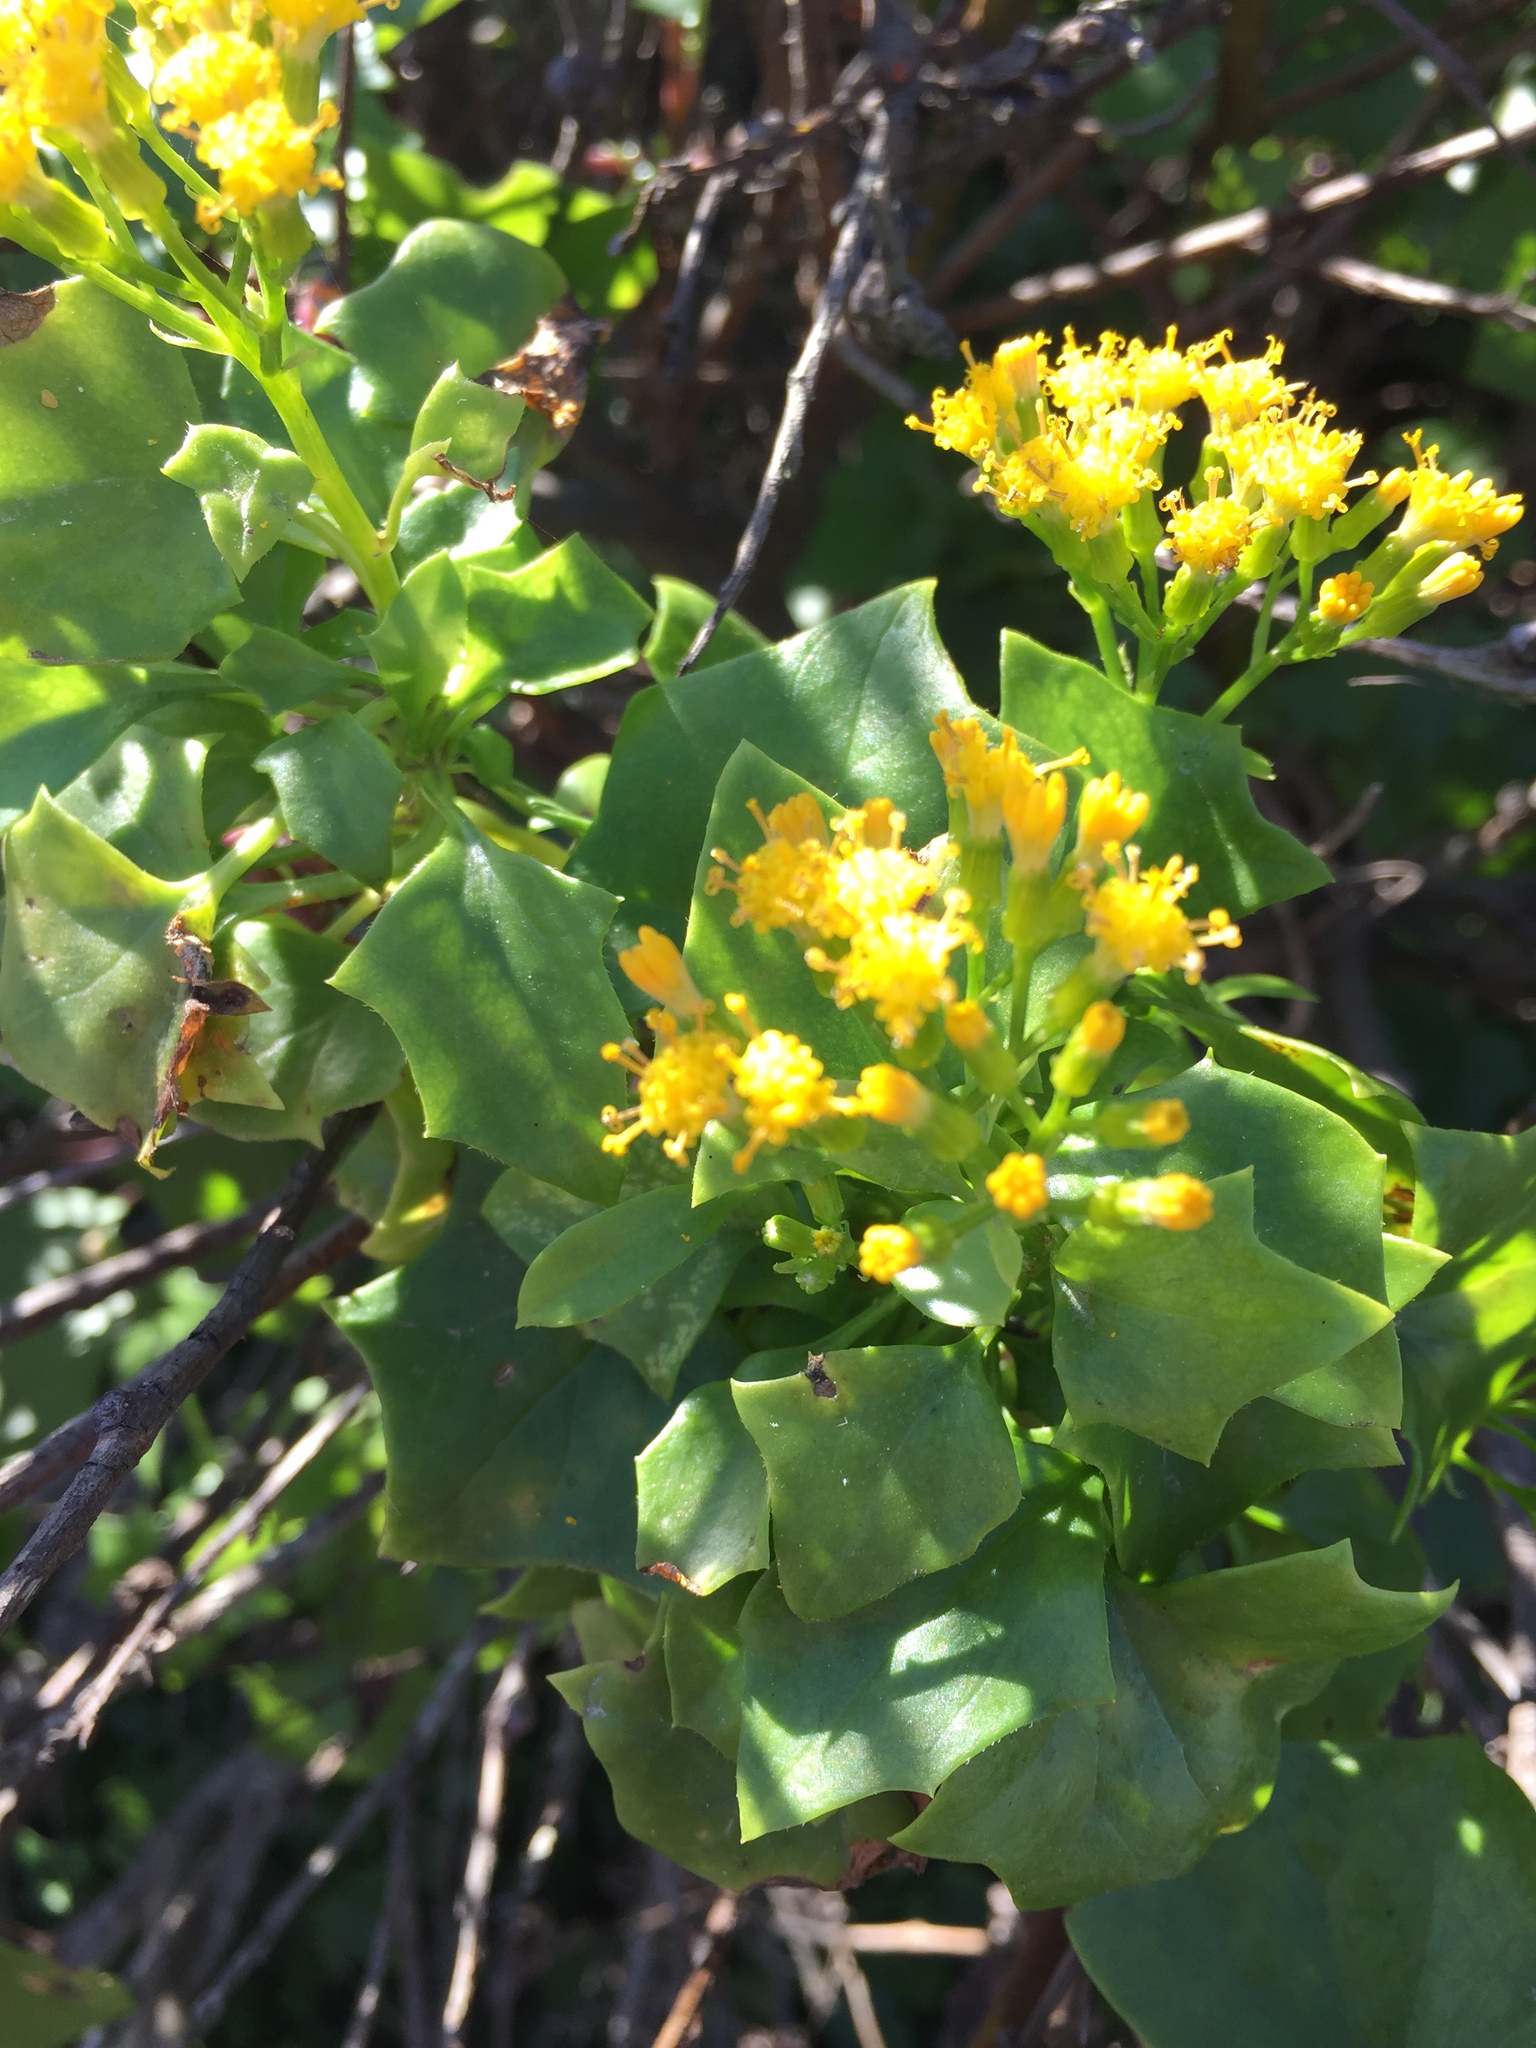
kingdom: Plantae
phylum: Tracheophyta
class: Magnoliopsida
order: Asterales
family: Asteraceae
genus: Delairea
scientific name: Delairea odorata
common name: Cape-ivy
